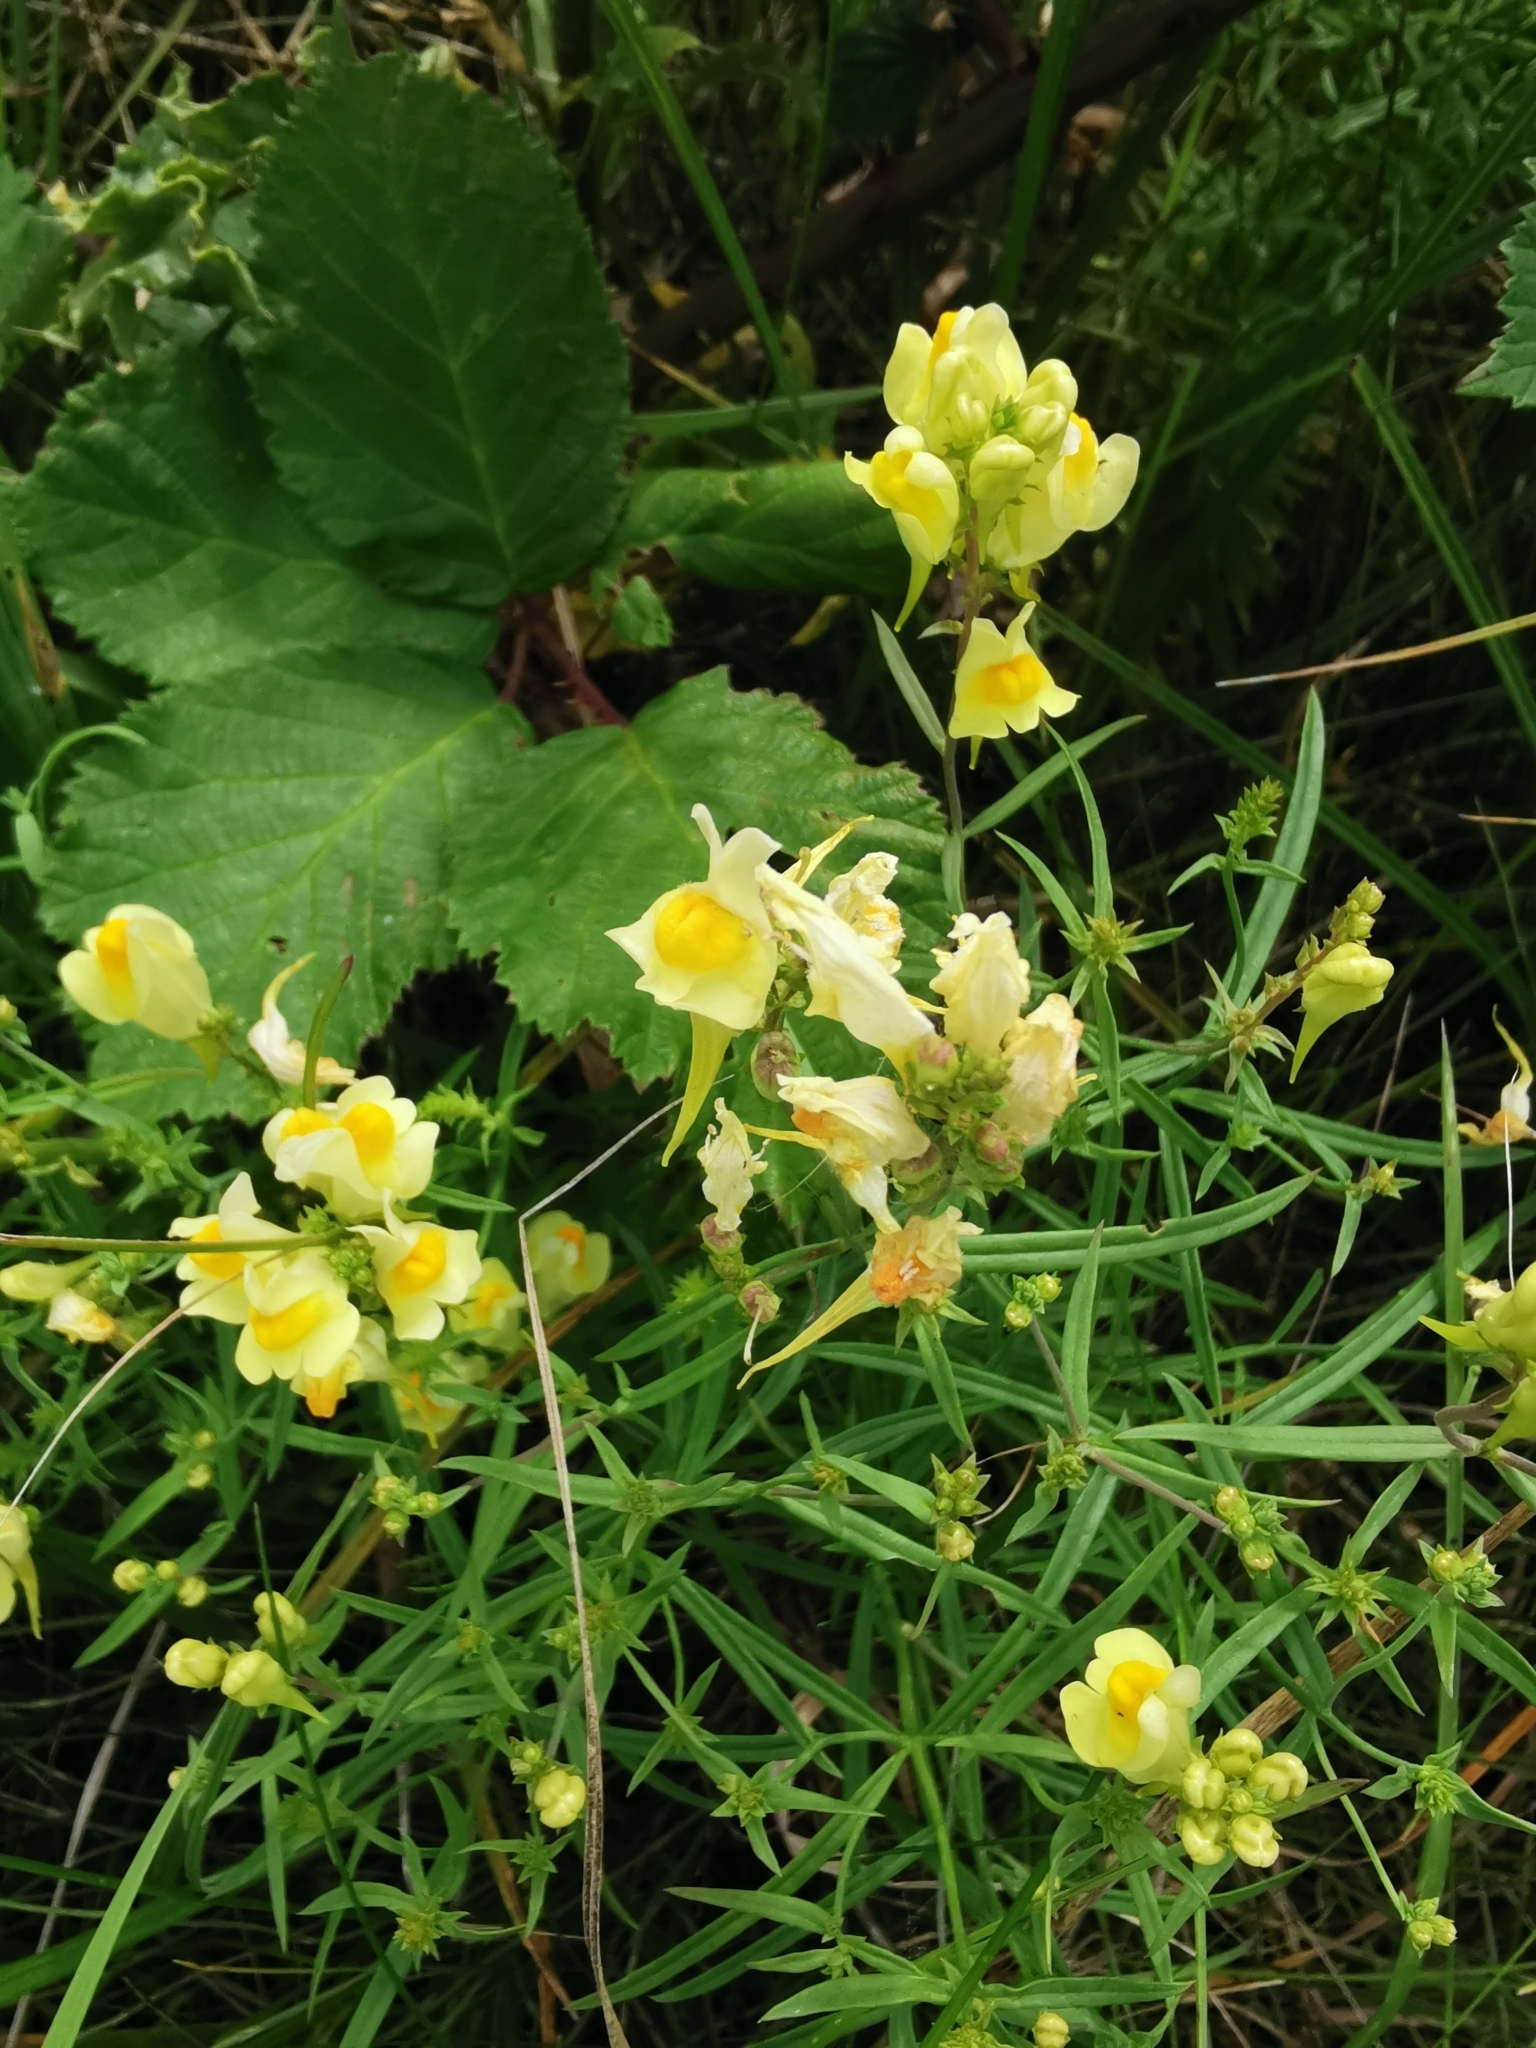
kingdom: Plantae
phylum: Tracheophyta
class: Magnoliopsida
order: Lamiales
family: Plantaginaceae
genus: Linaria
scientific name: Linaria vulgaris
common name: Butter and eggs
